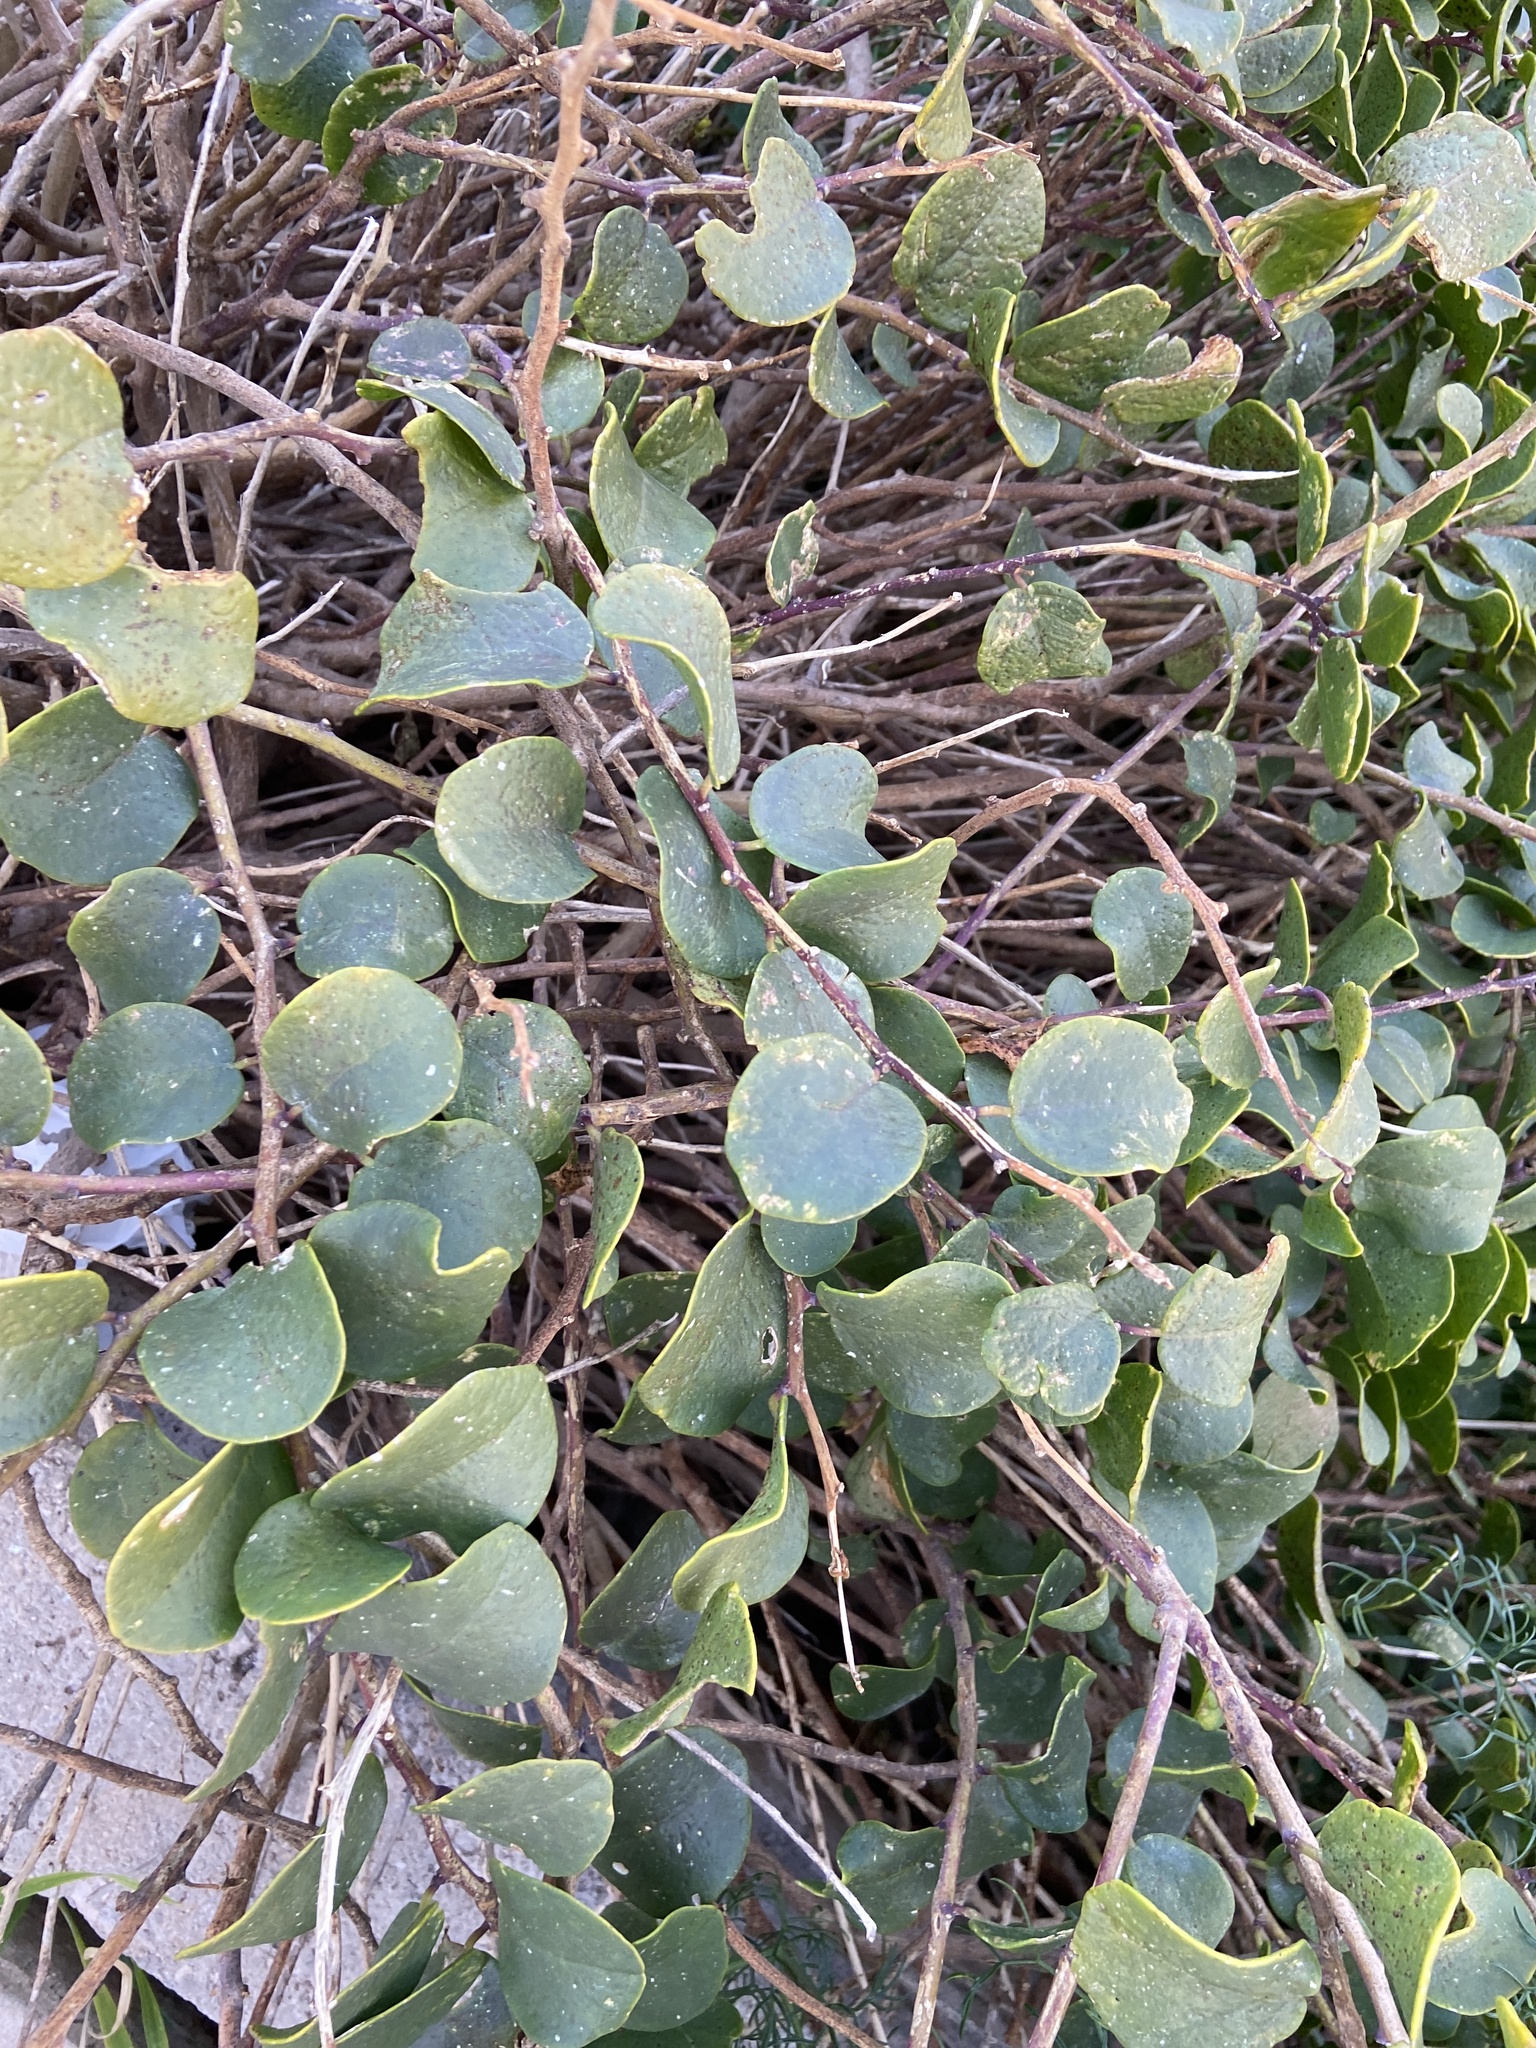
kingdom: Plantae
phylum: Tracheophyta
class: Magnoliopsida
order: Brassicales
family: Capparaceae
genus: Capparis
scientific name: Capparis orientalis
